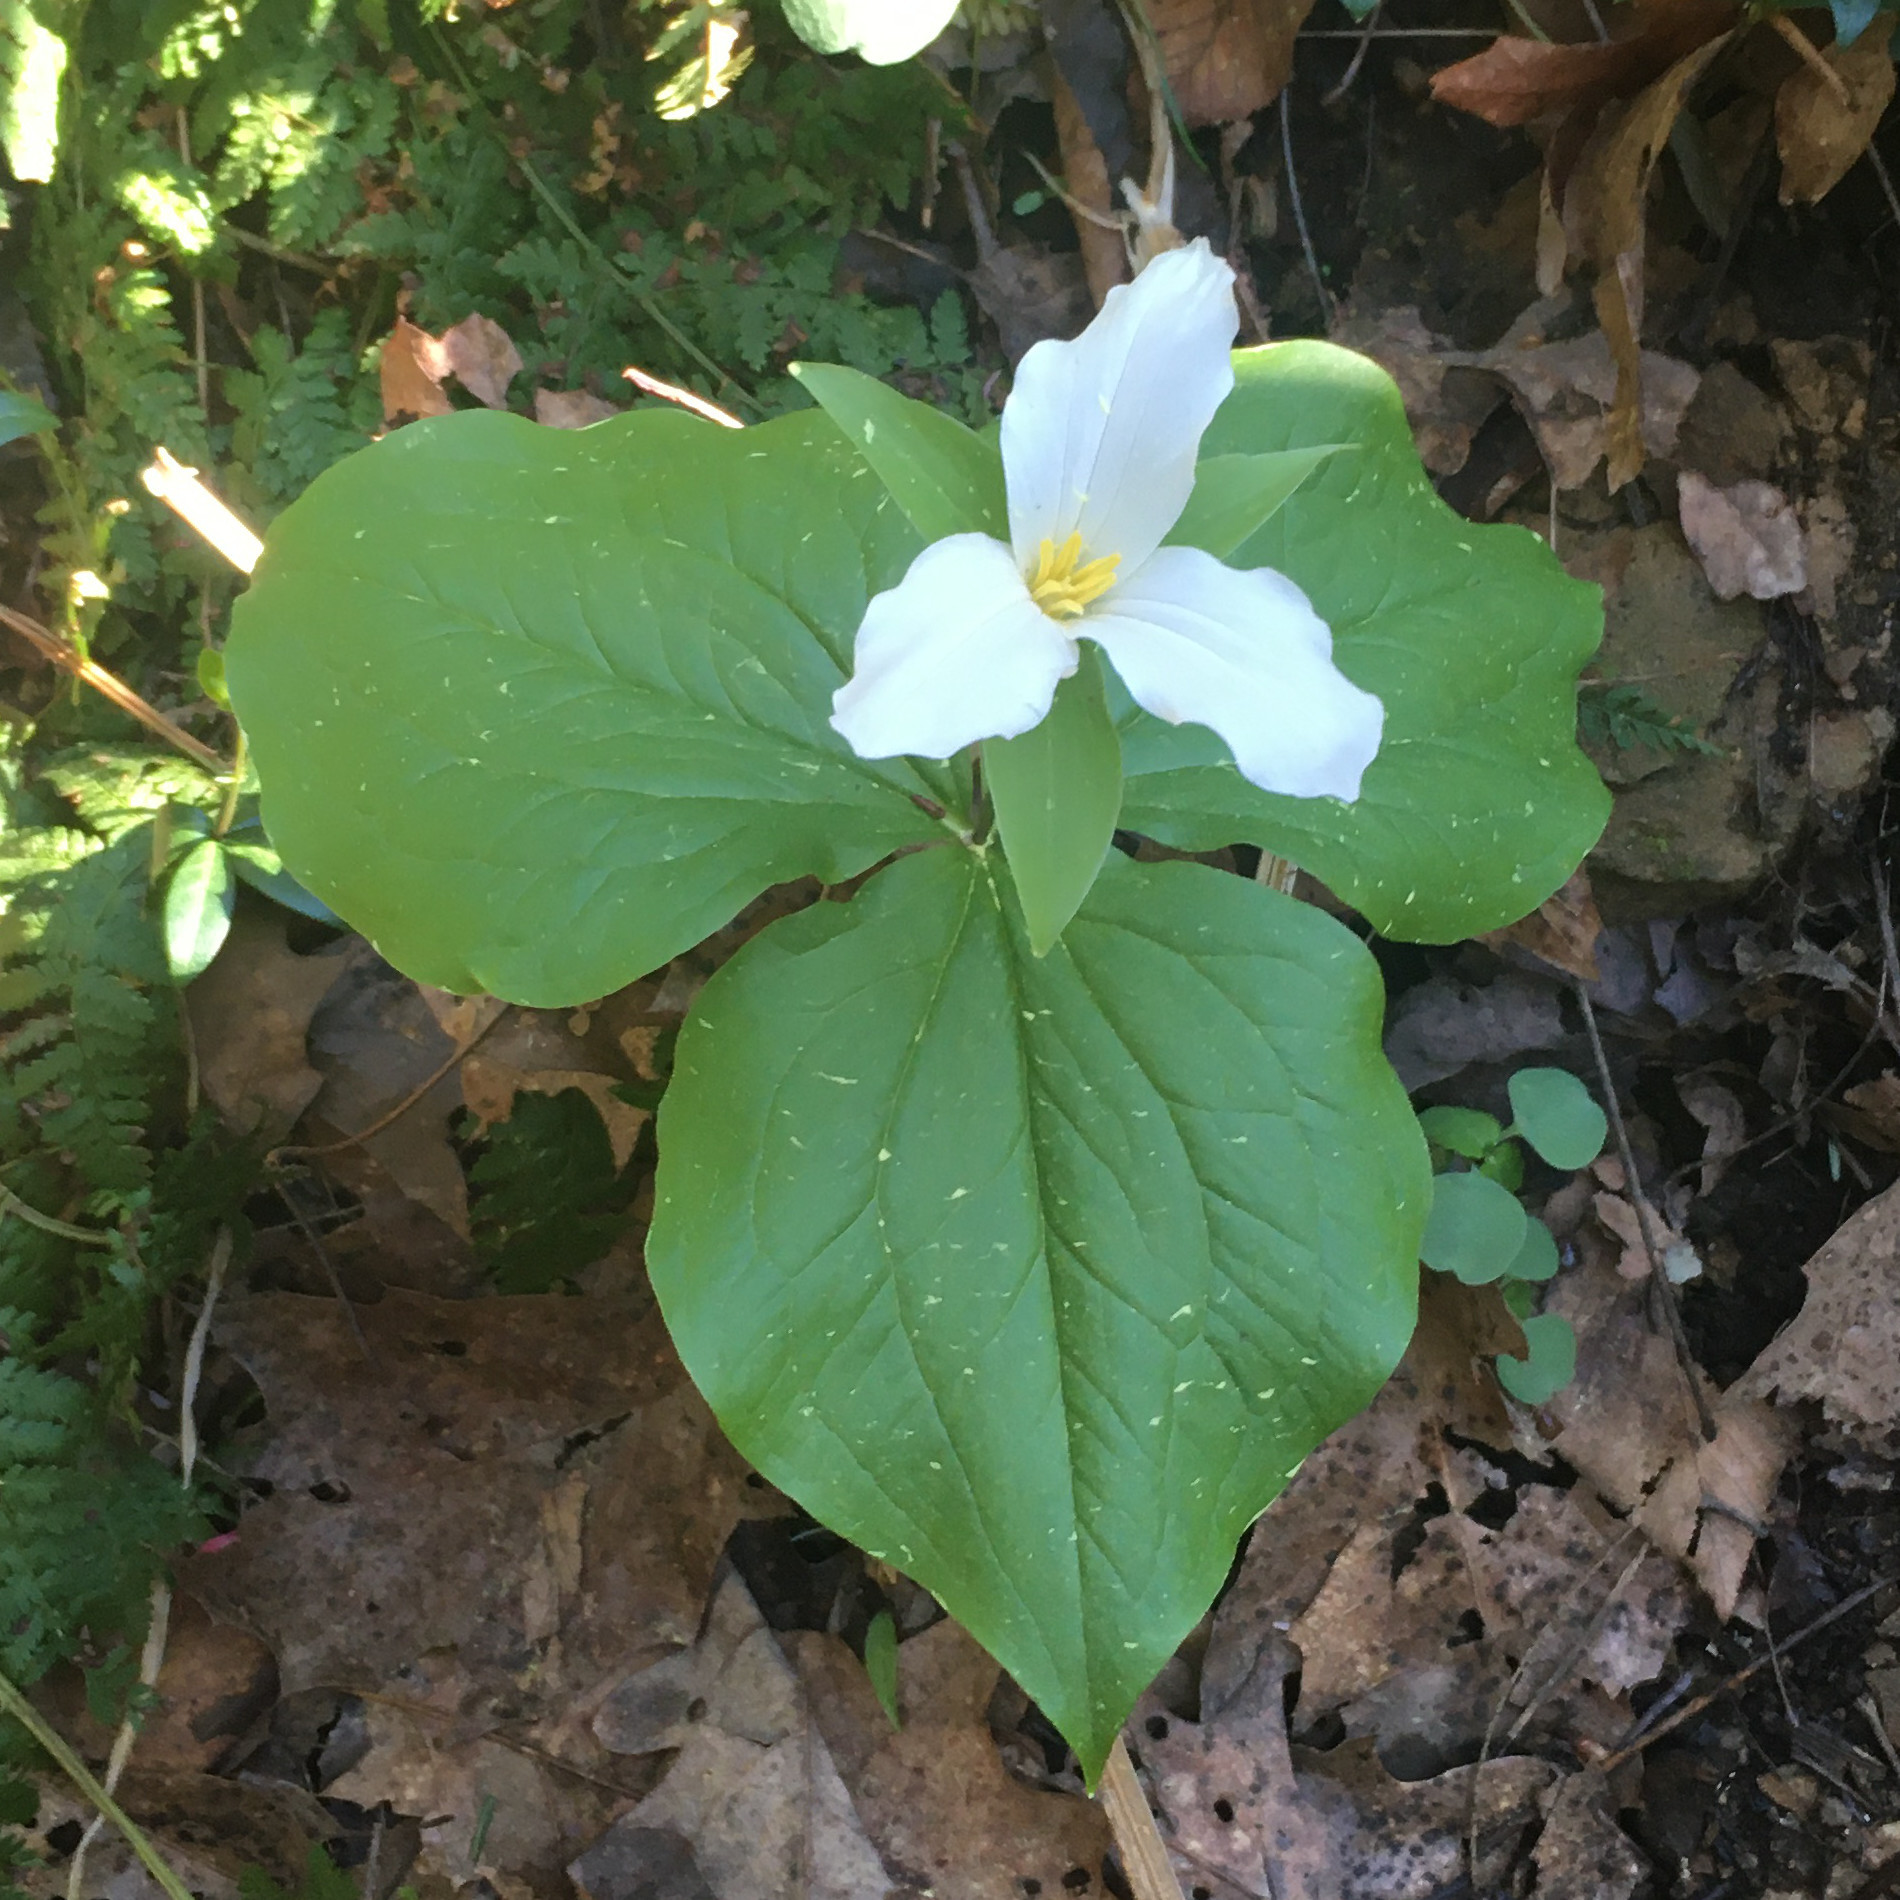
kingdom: Plantae
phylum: Tracheophyta
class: Liliopsida
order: Liliales
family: Melanthiaceae
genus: Trillium
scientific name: Trillium grandiflorum
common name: Great white trillium
